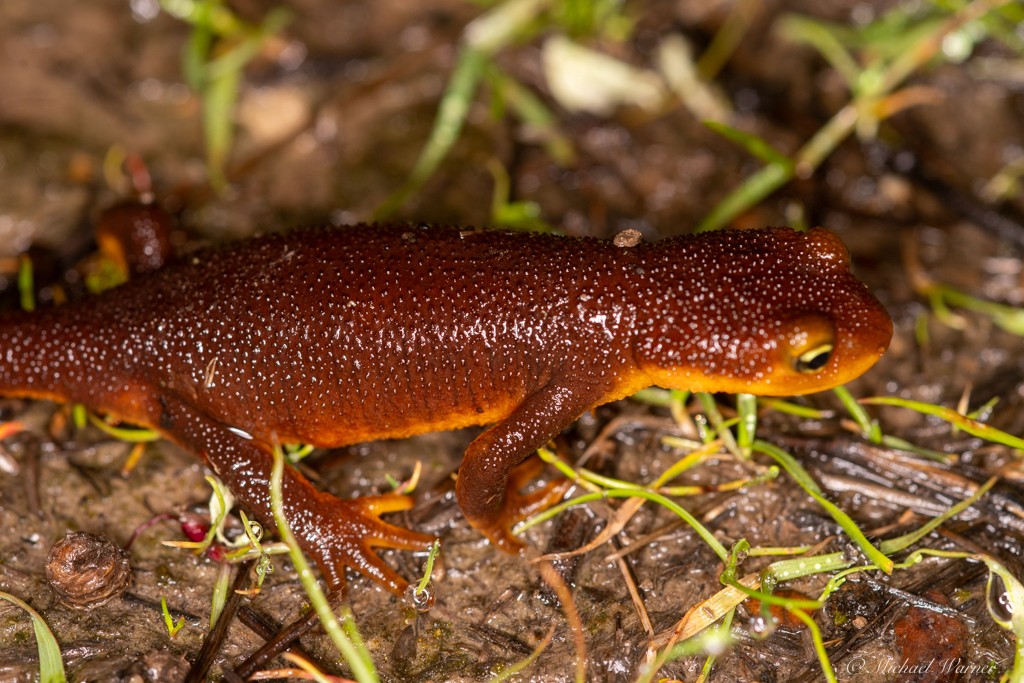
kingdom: Animalia
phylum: Chordata
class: Amphibia
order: Caudata
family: Salamandridae
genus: Taricha
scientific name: Taricha torosa
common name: California newt
